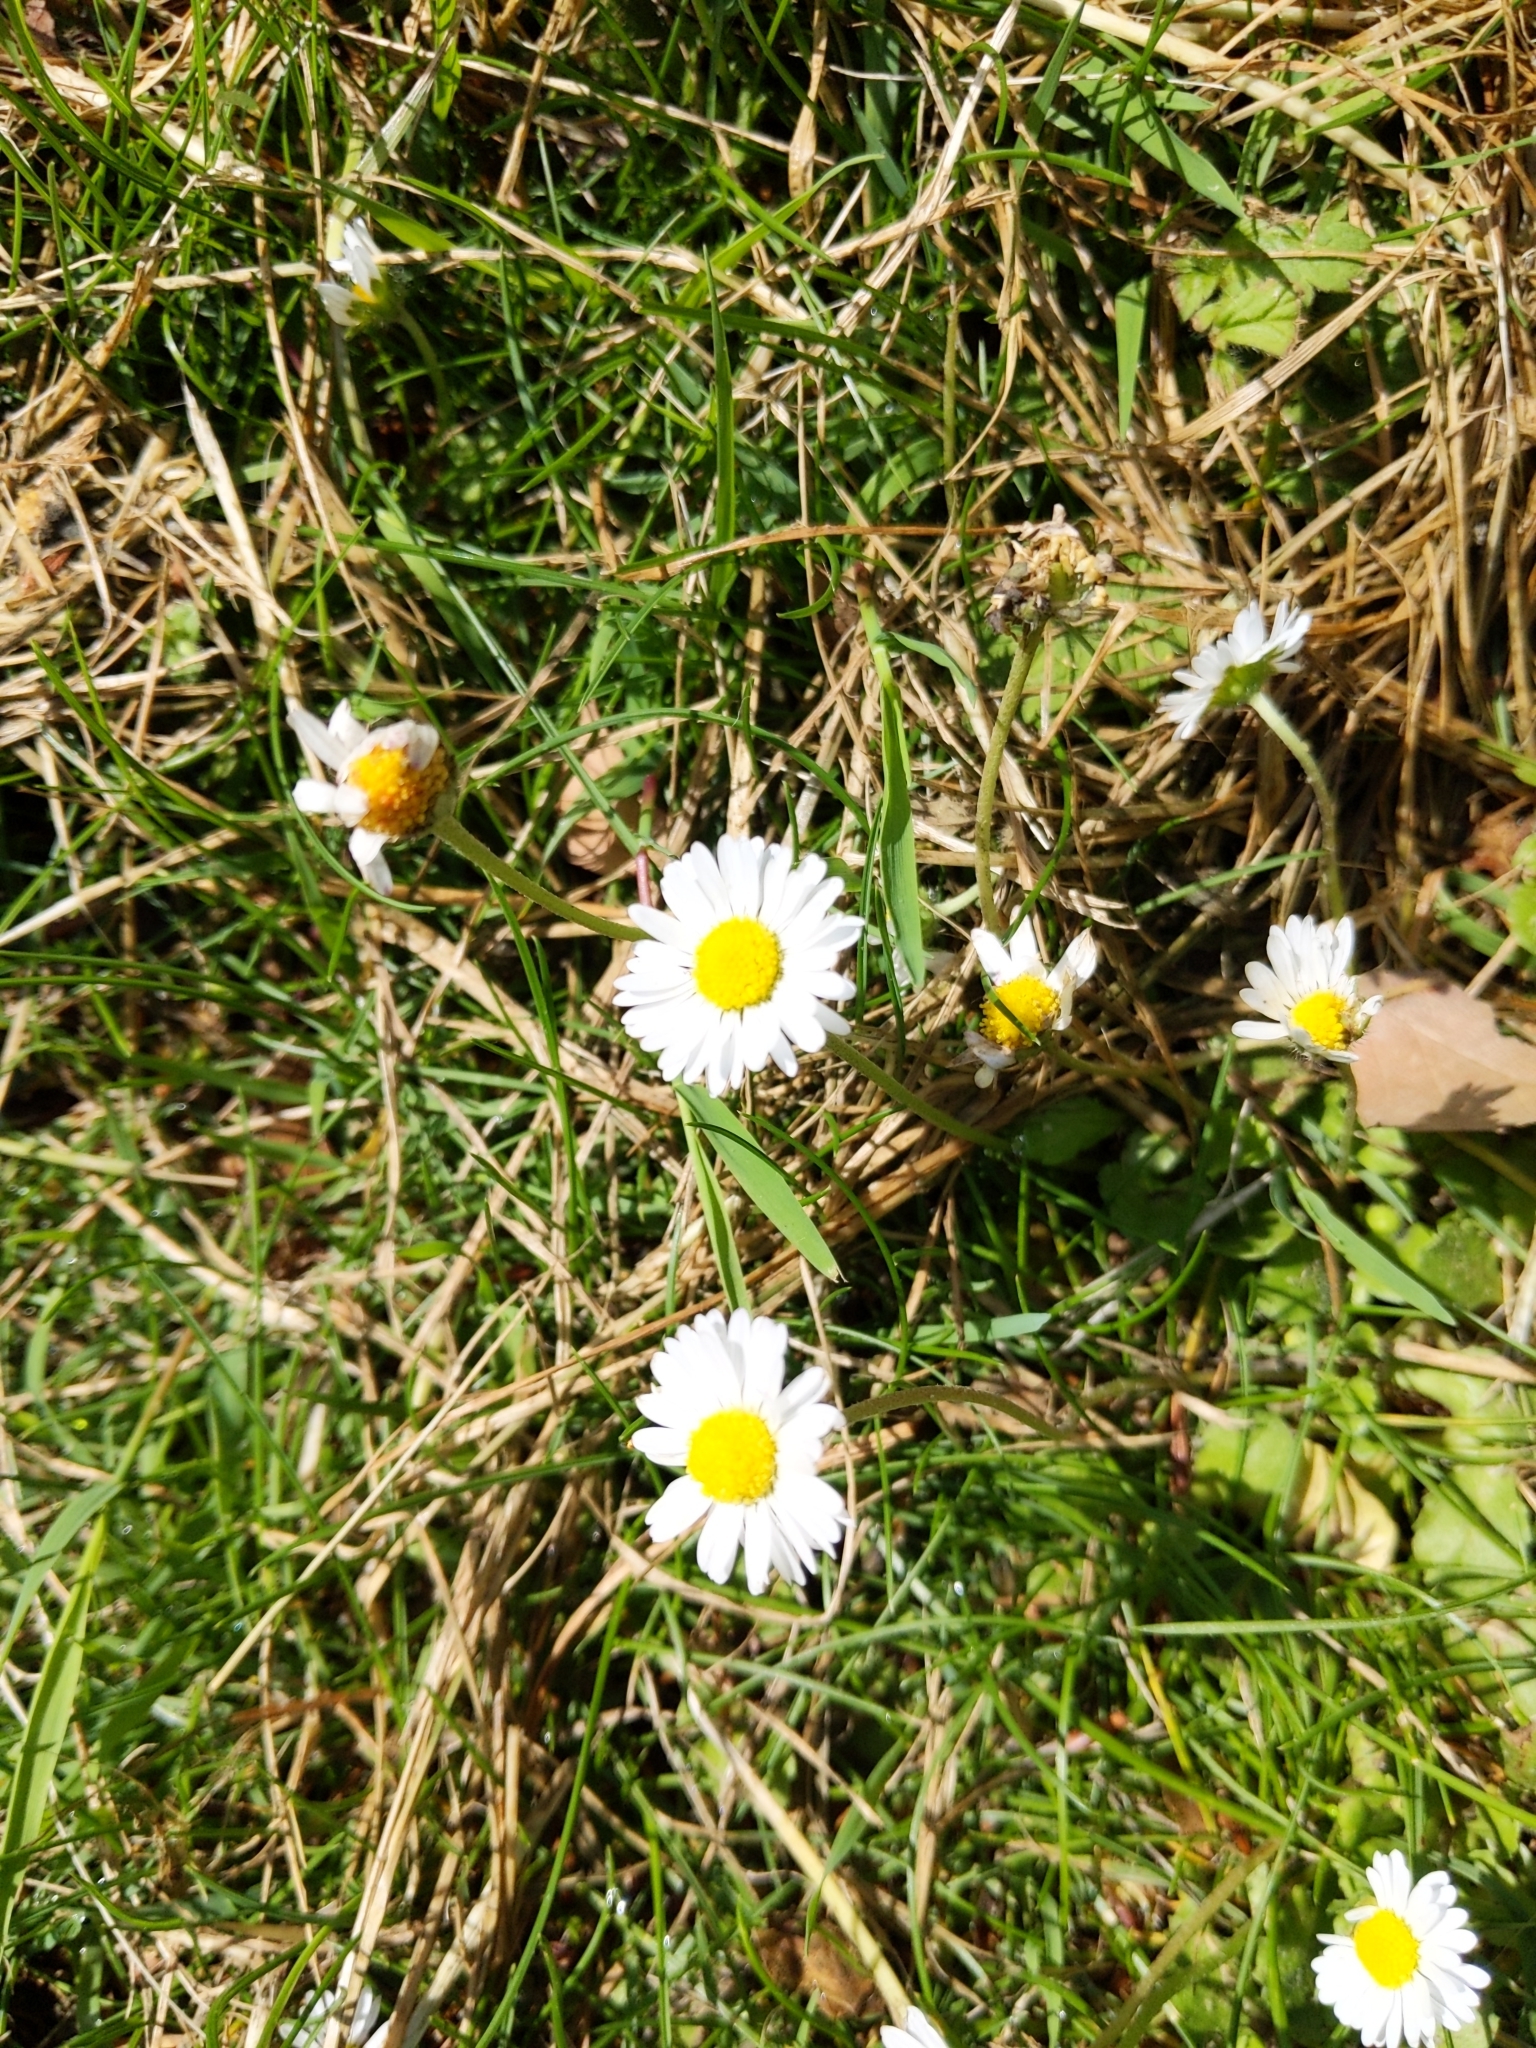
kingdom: Plantae
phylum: Tracheophyta
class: Magnoliopsida
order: Asterales
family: Asteraceae
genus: Bellis
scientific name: Bellis perennis
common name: Lawndaisy
